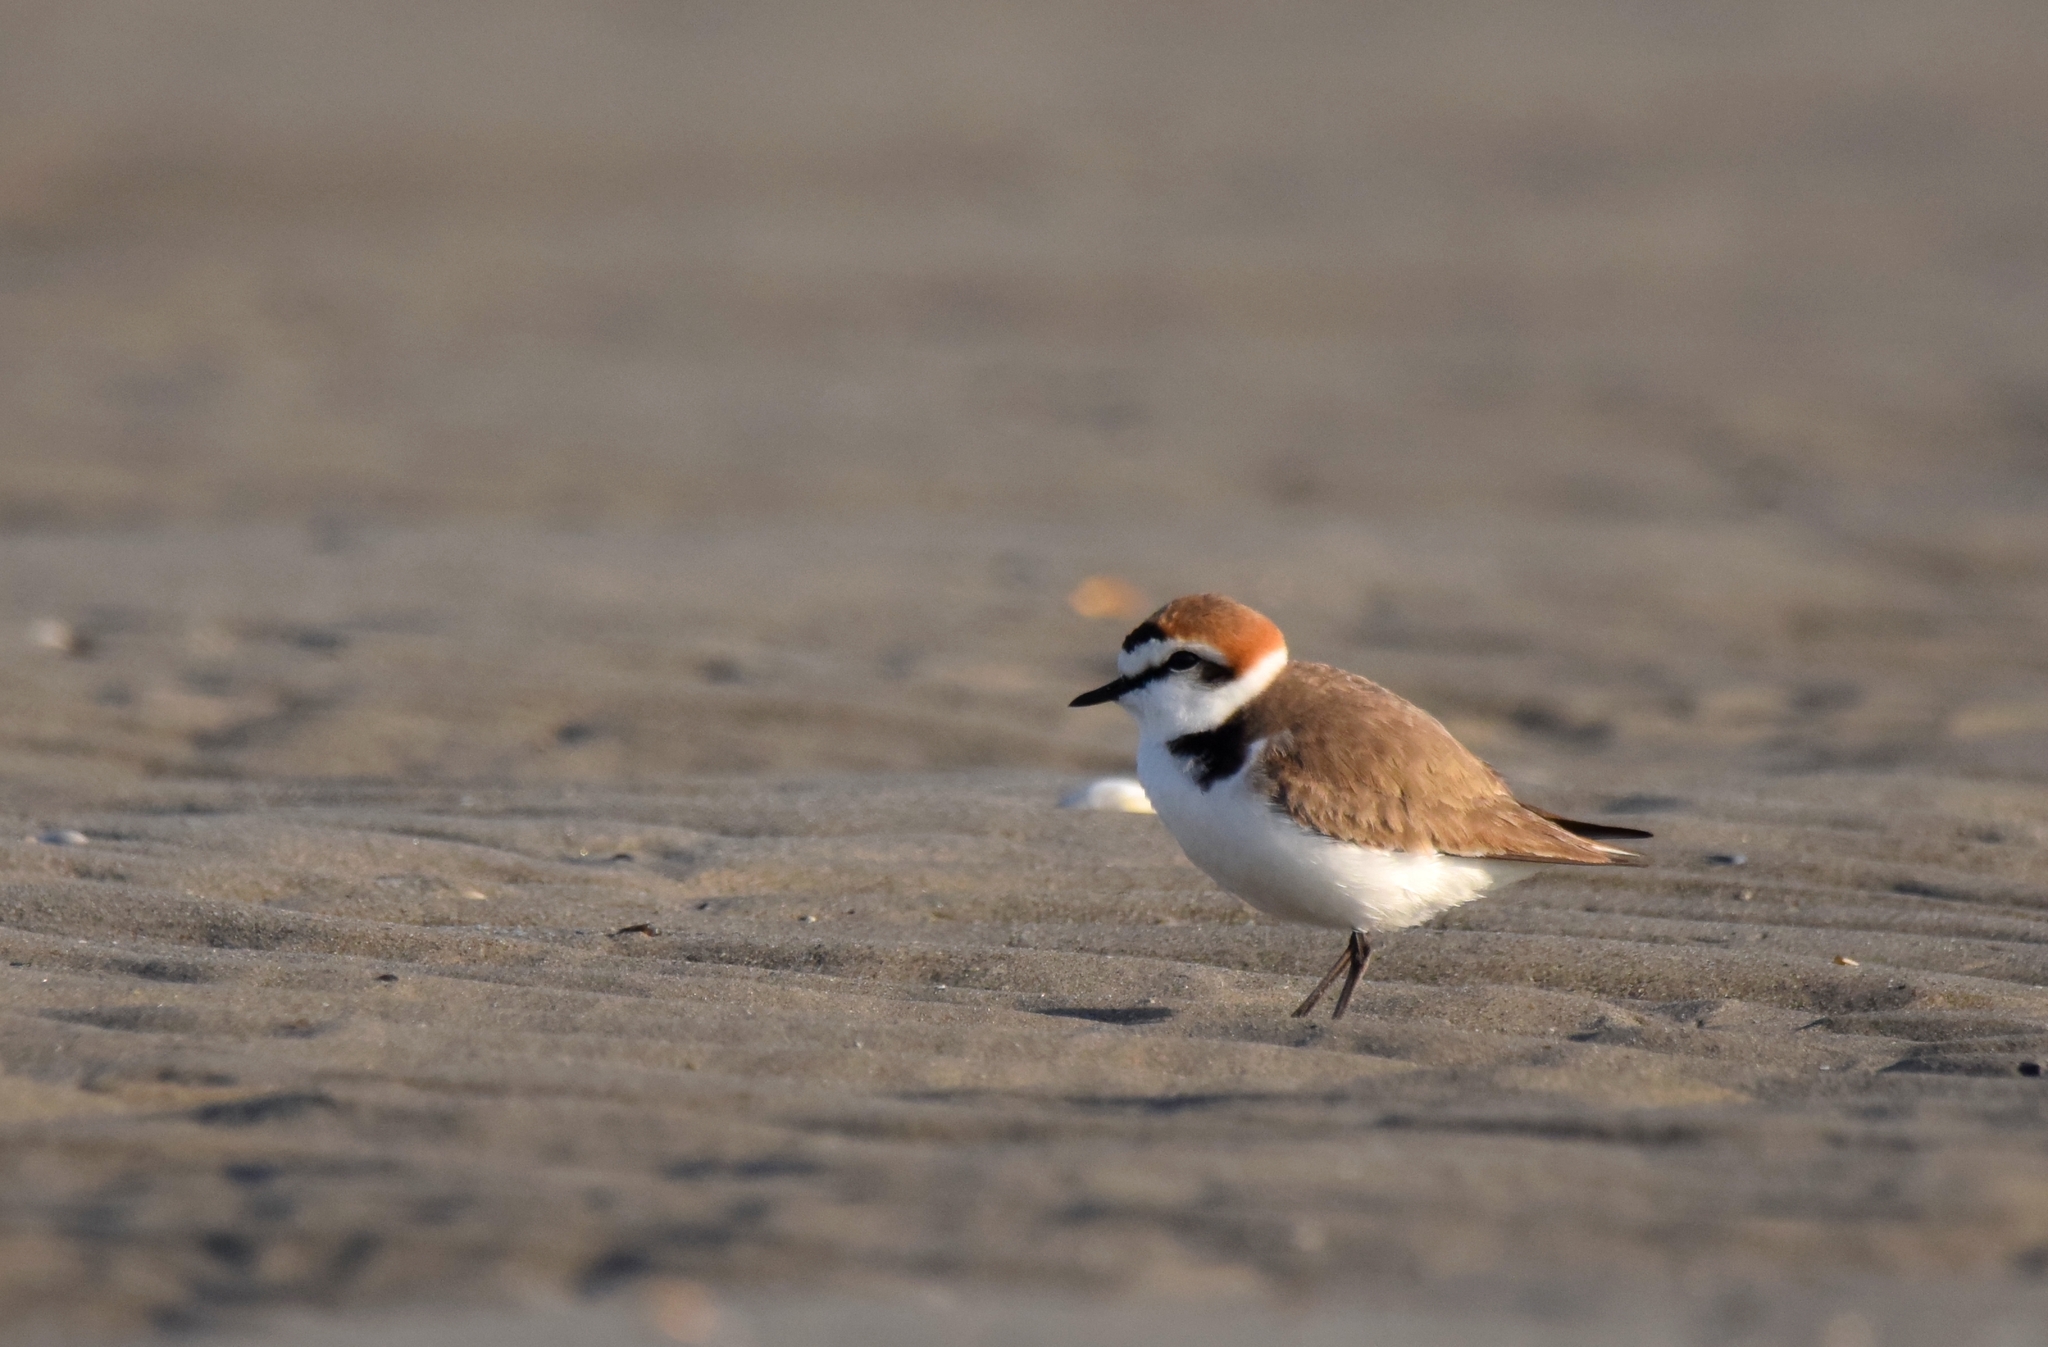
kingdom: Animalia
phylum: Chordata
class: Aves
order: Charadriiformes
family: Charadriidae
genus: Charadrius
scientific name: Charadrius alexandrinus
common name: Kentish plover
